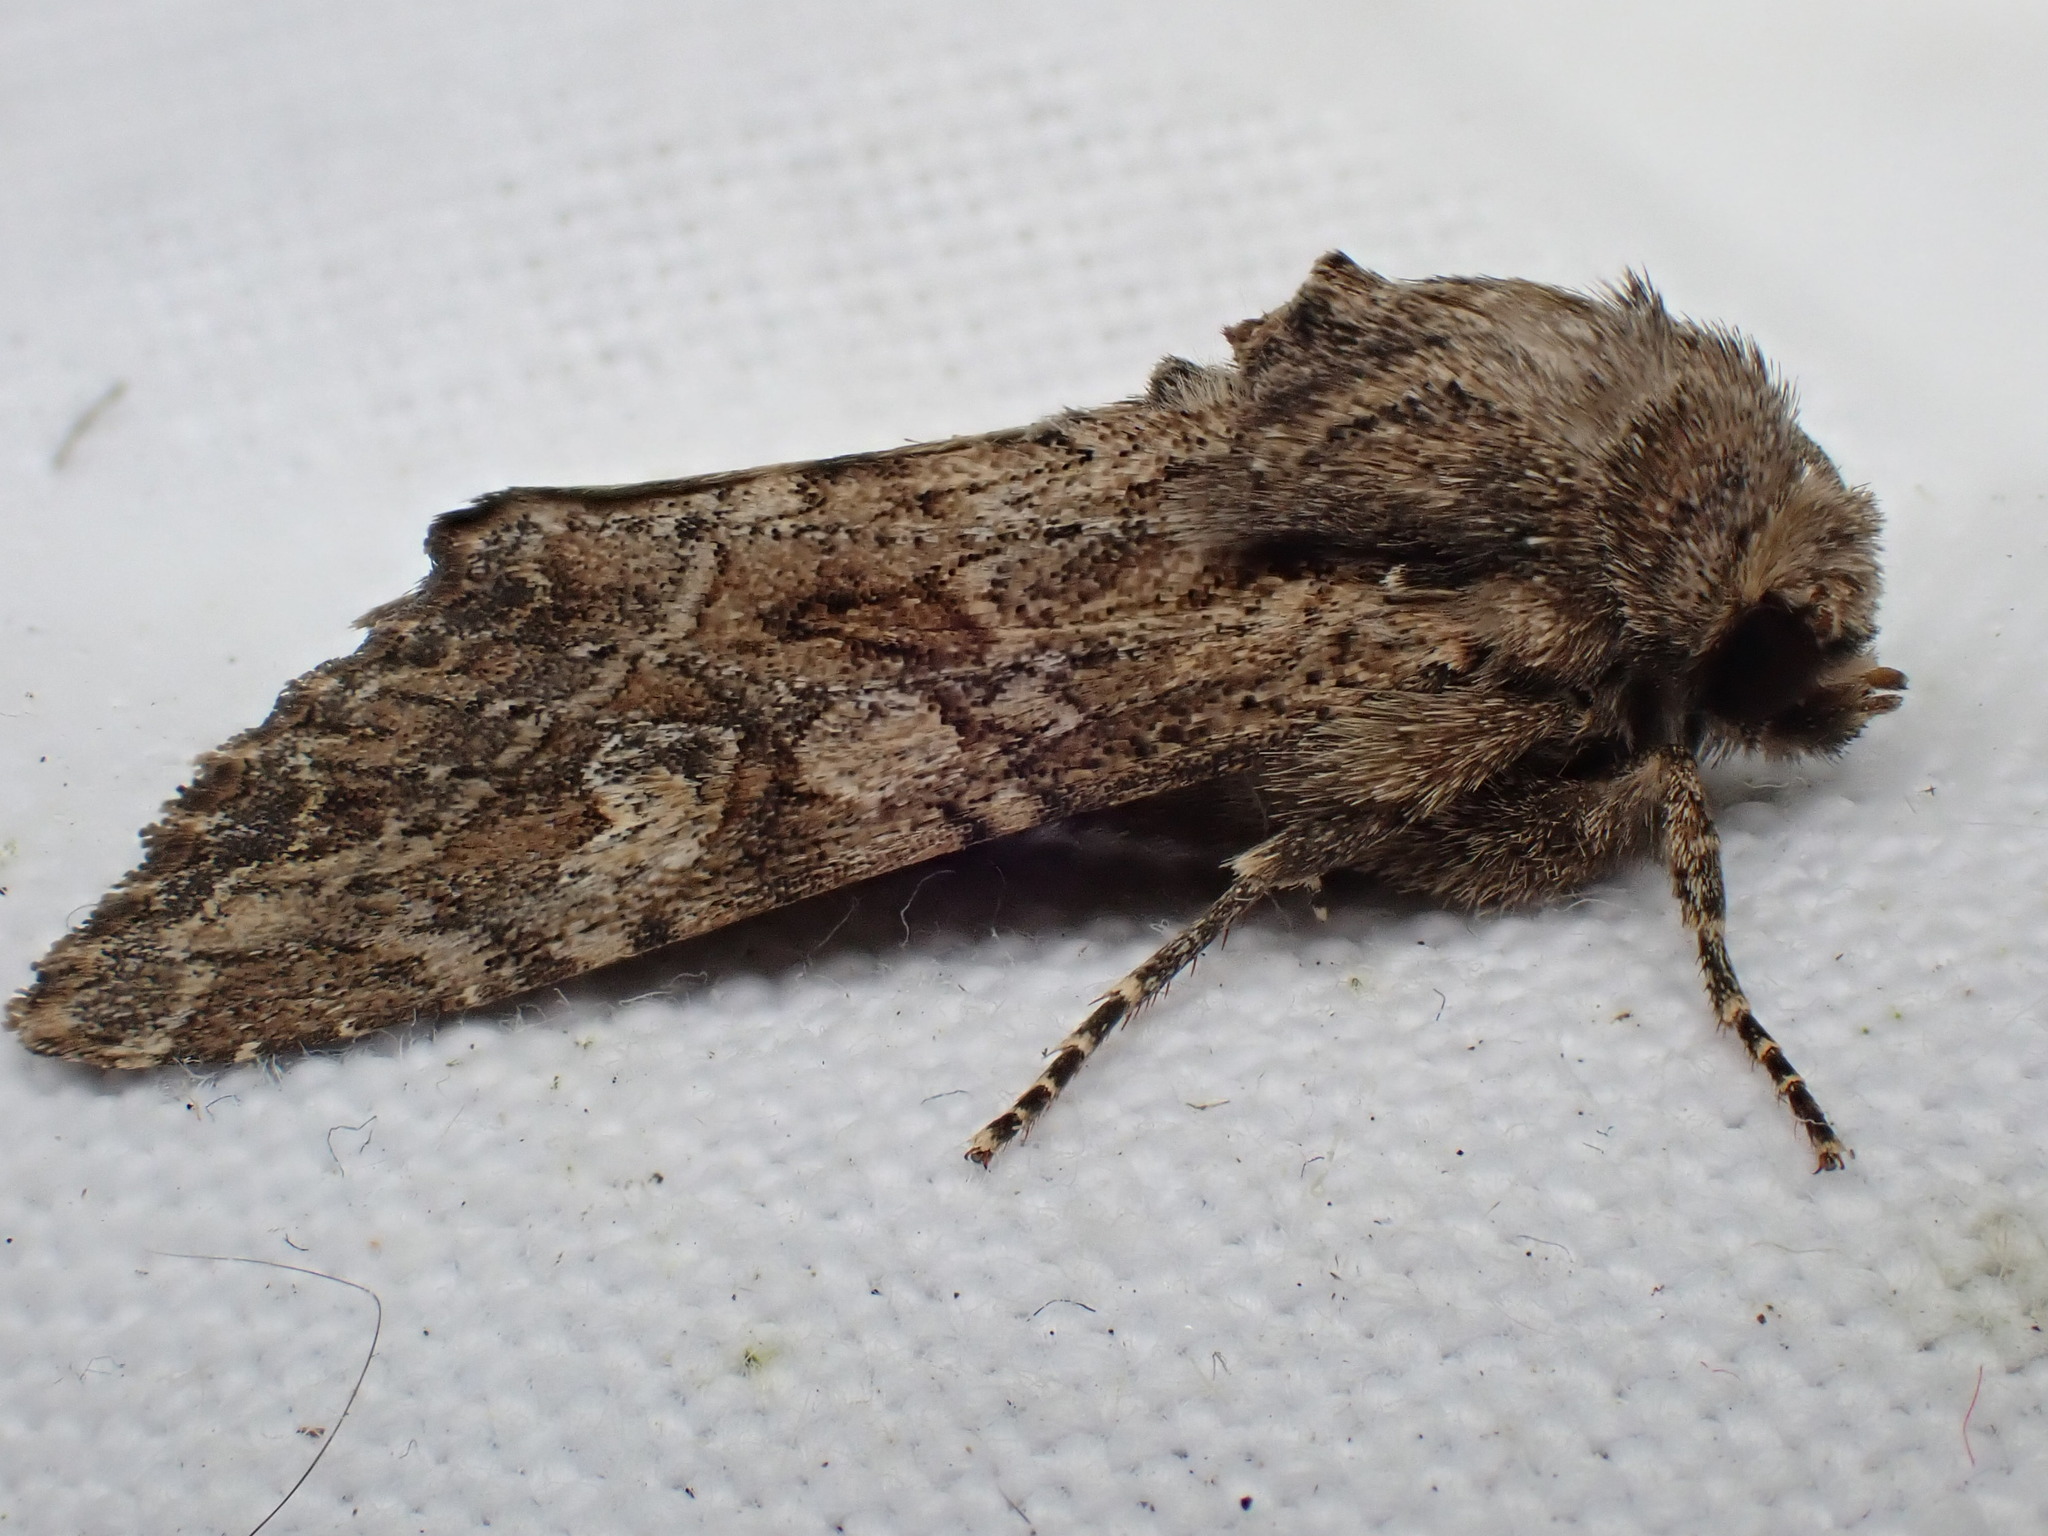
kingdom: Animalia
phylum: Arthropoda
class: Insecta
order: Lepidoptera
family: Noctuidae
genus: Apamea
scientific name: Apamea anceps
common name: Large nutmeg
